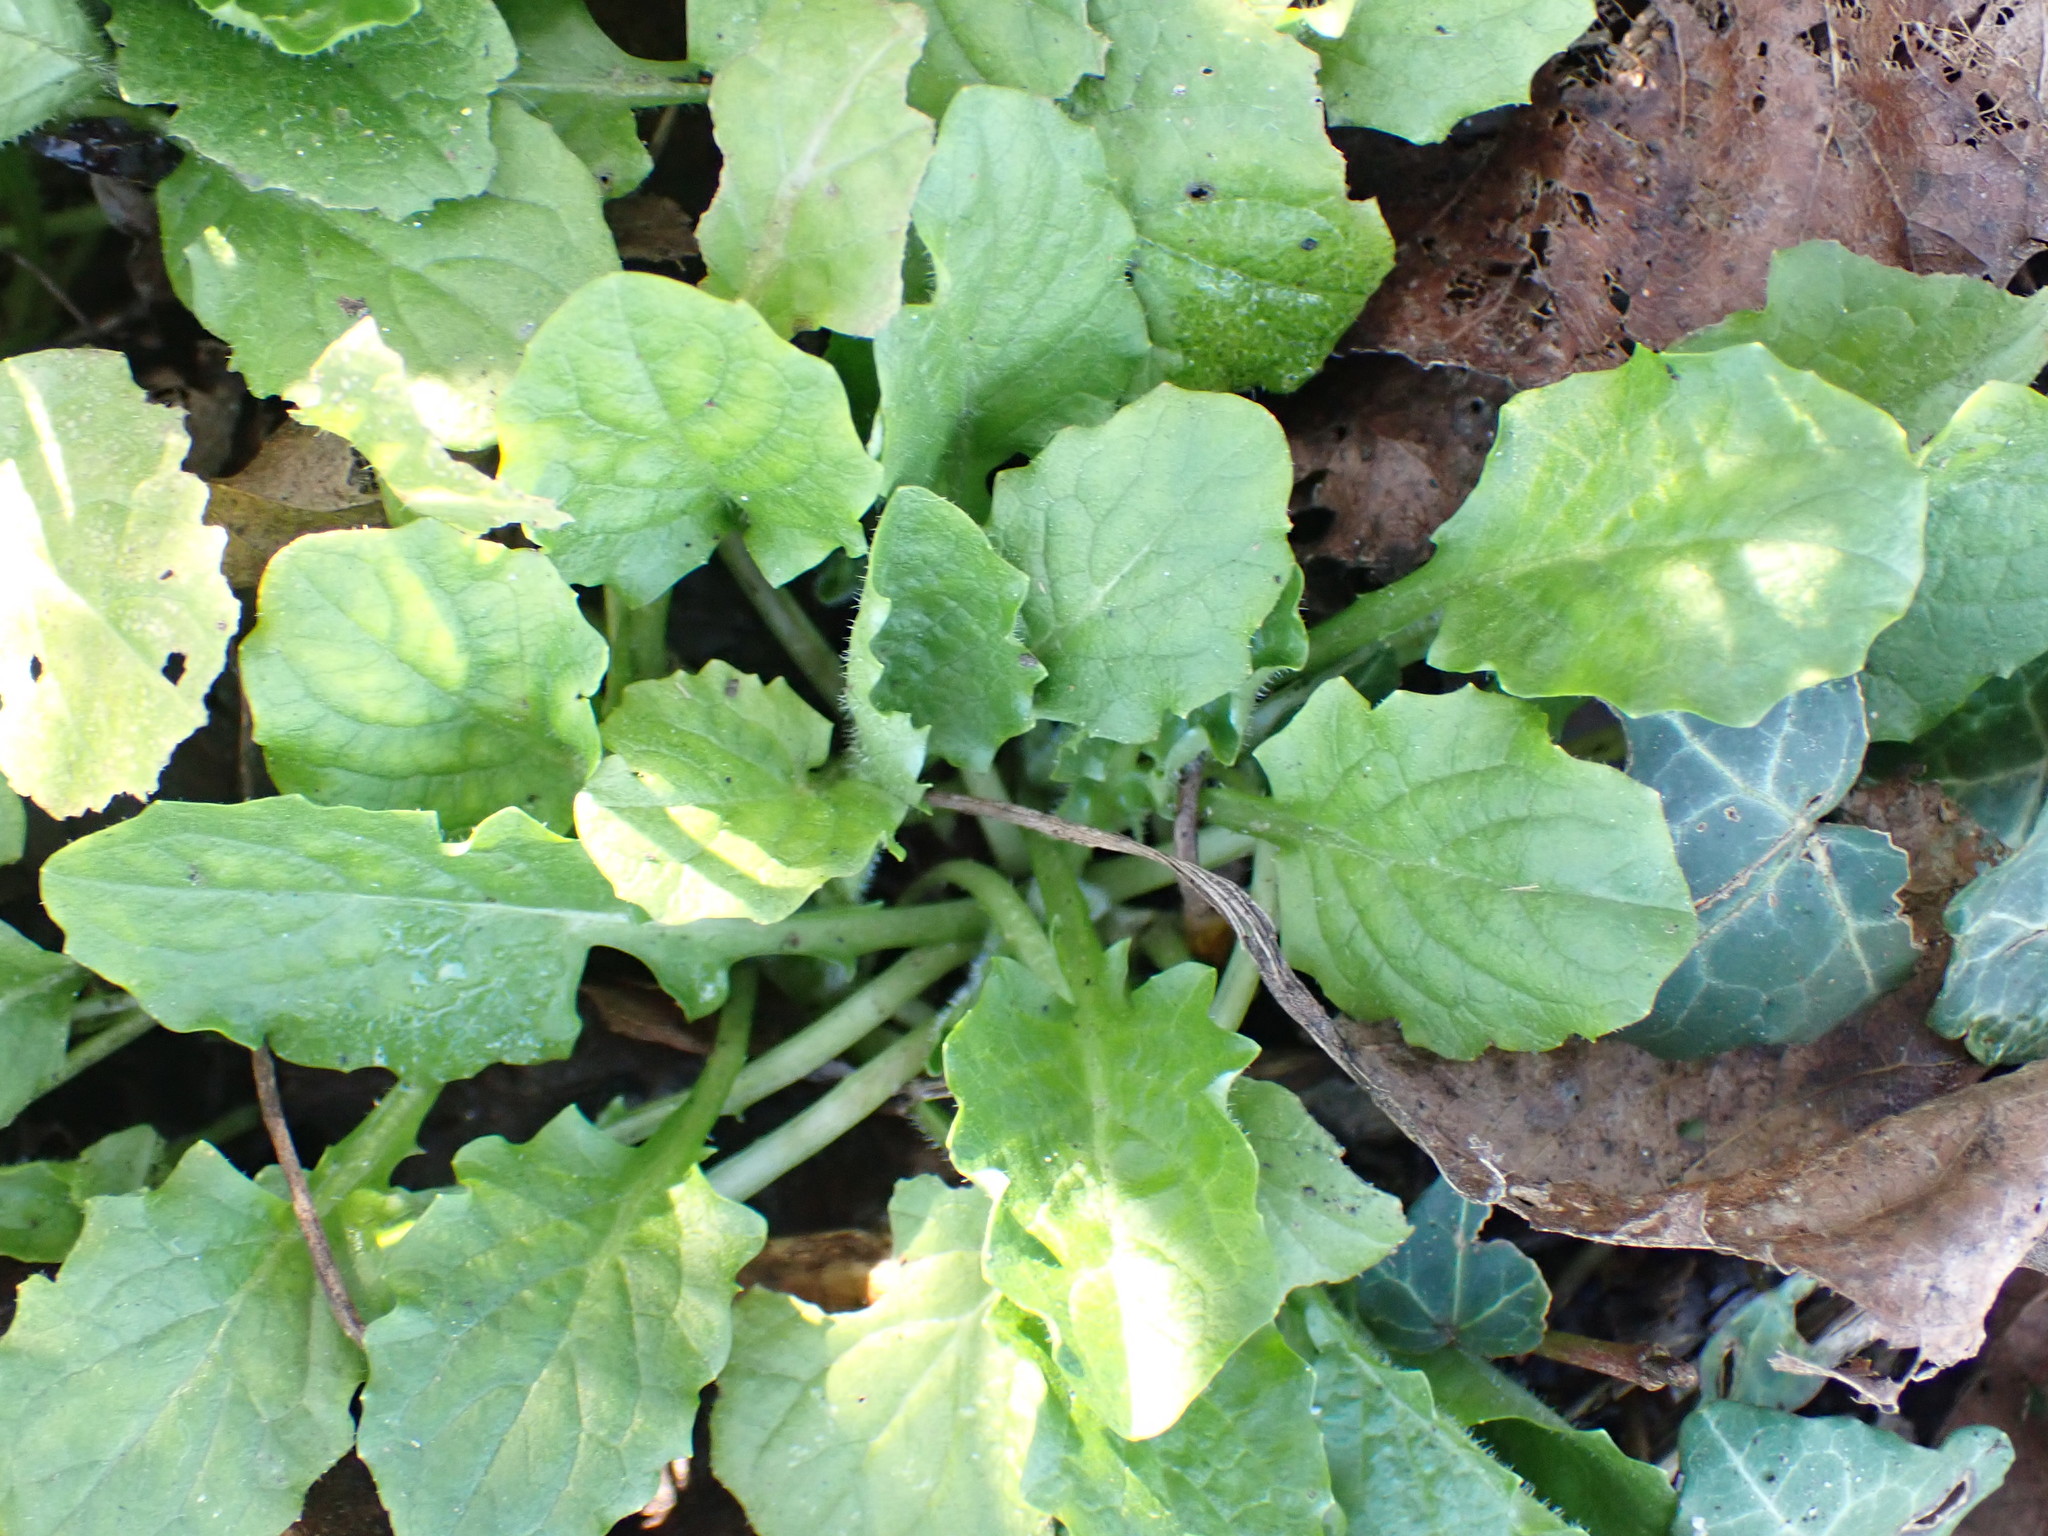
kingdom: Plantae
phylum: Tracheophyta
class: Magnoliopsida
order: Asterales
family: Asteraceae
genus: Lapsana
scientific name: Lapsana communis
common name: Nipplewort
